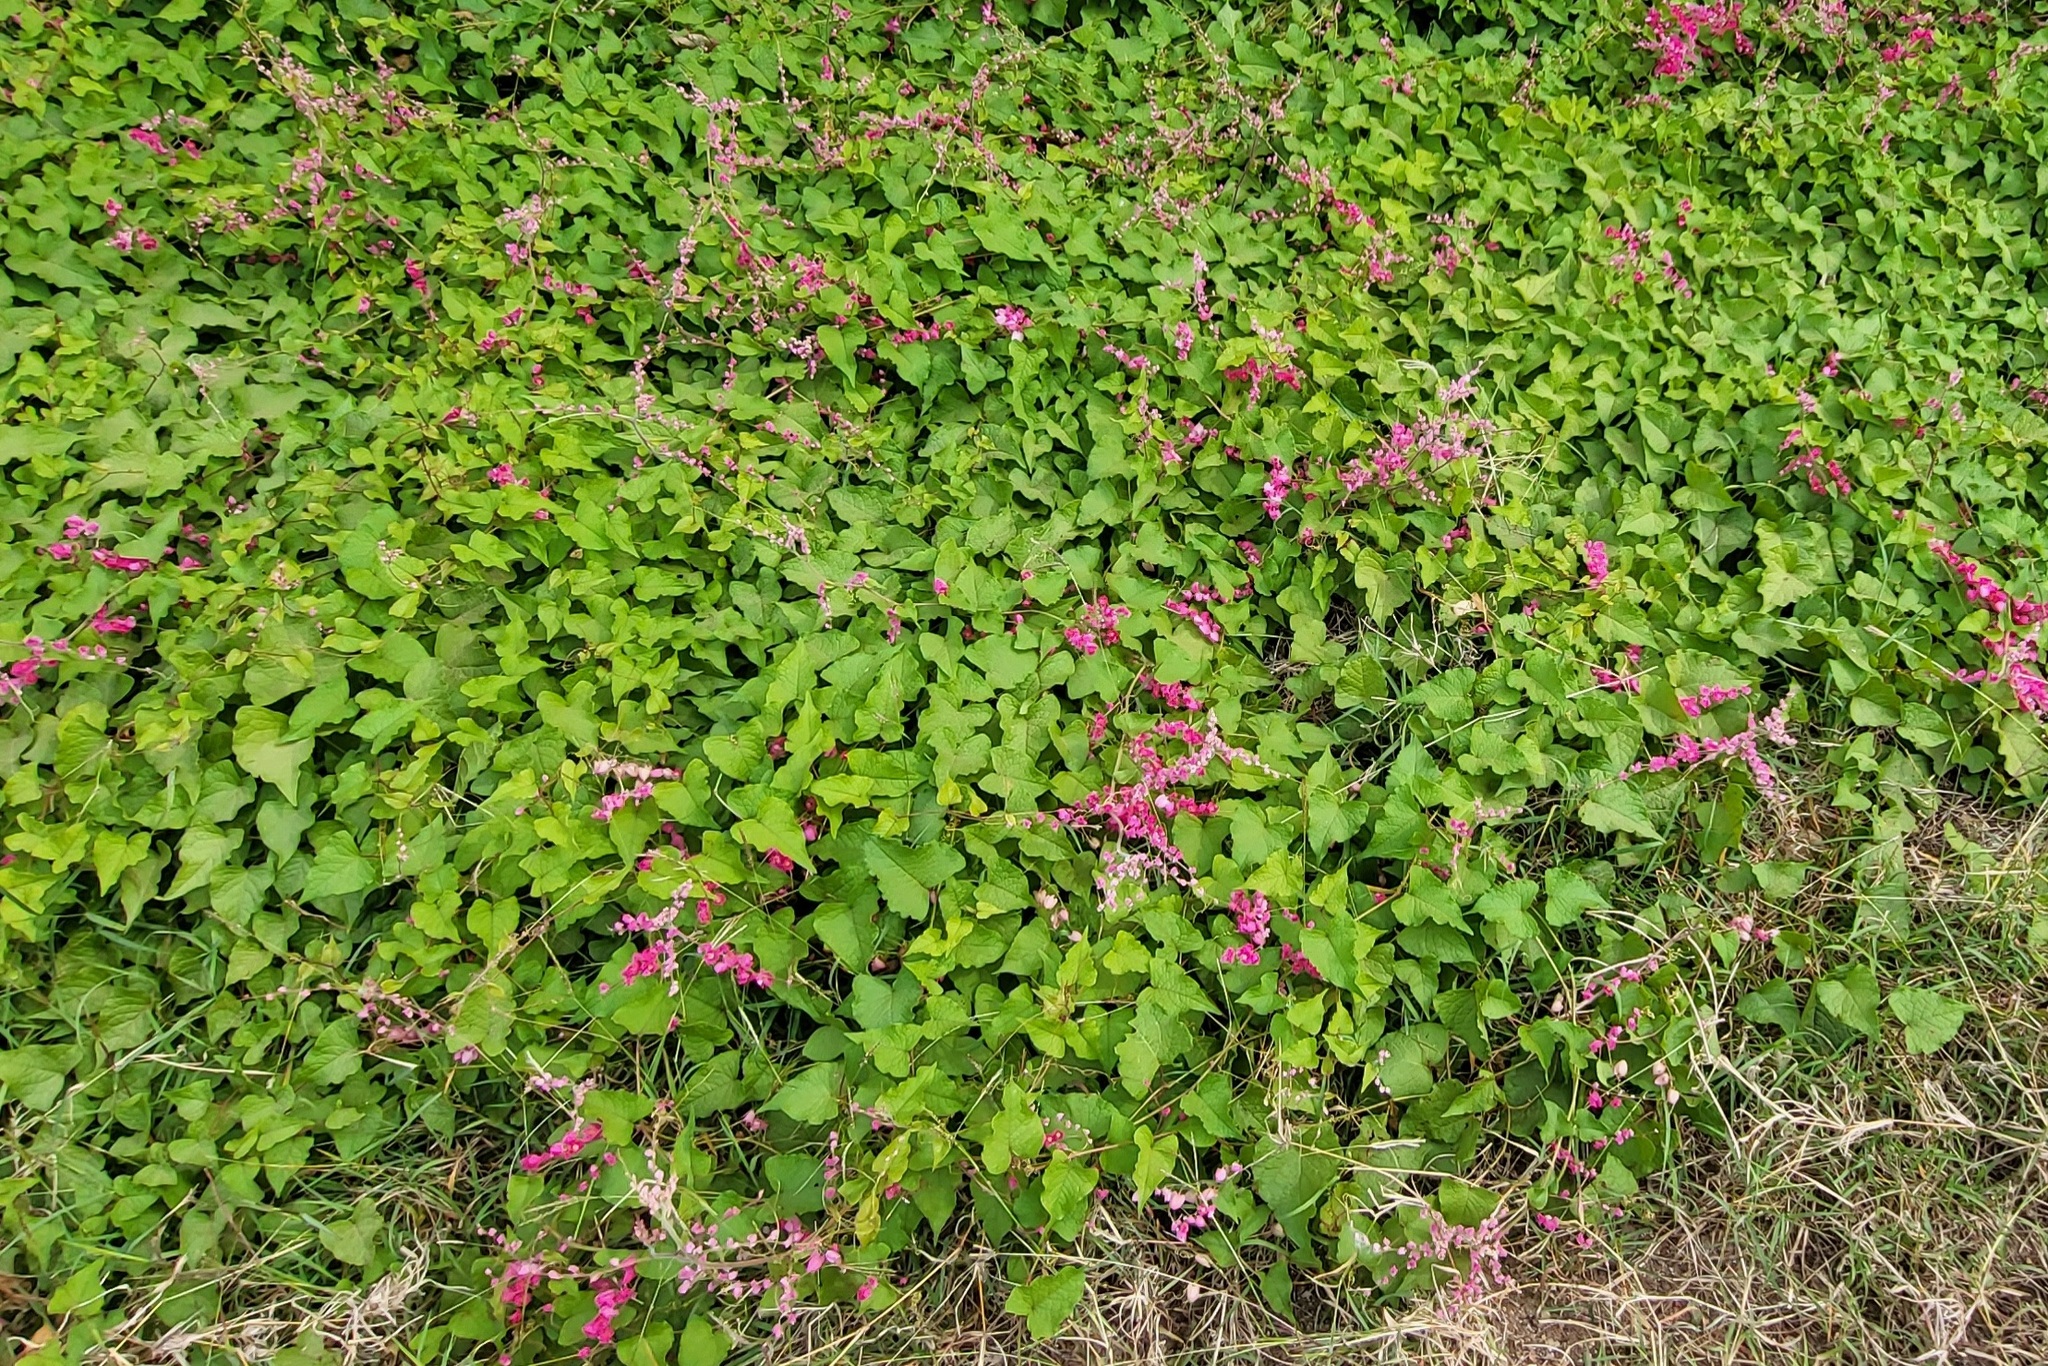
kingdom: Plantae
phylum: Tracheophyta
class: Magnoliopsida
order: Caryophyllales
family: Polygonaceae
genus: Antigonon
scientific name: Antigonon leptopus
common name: Coral vine
